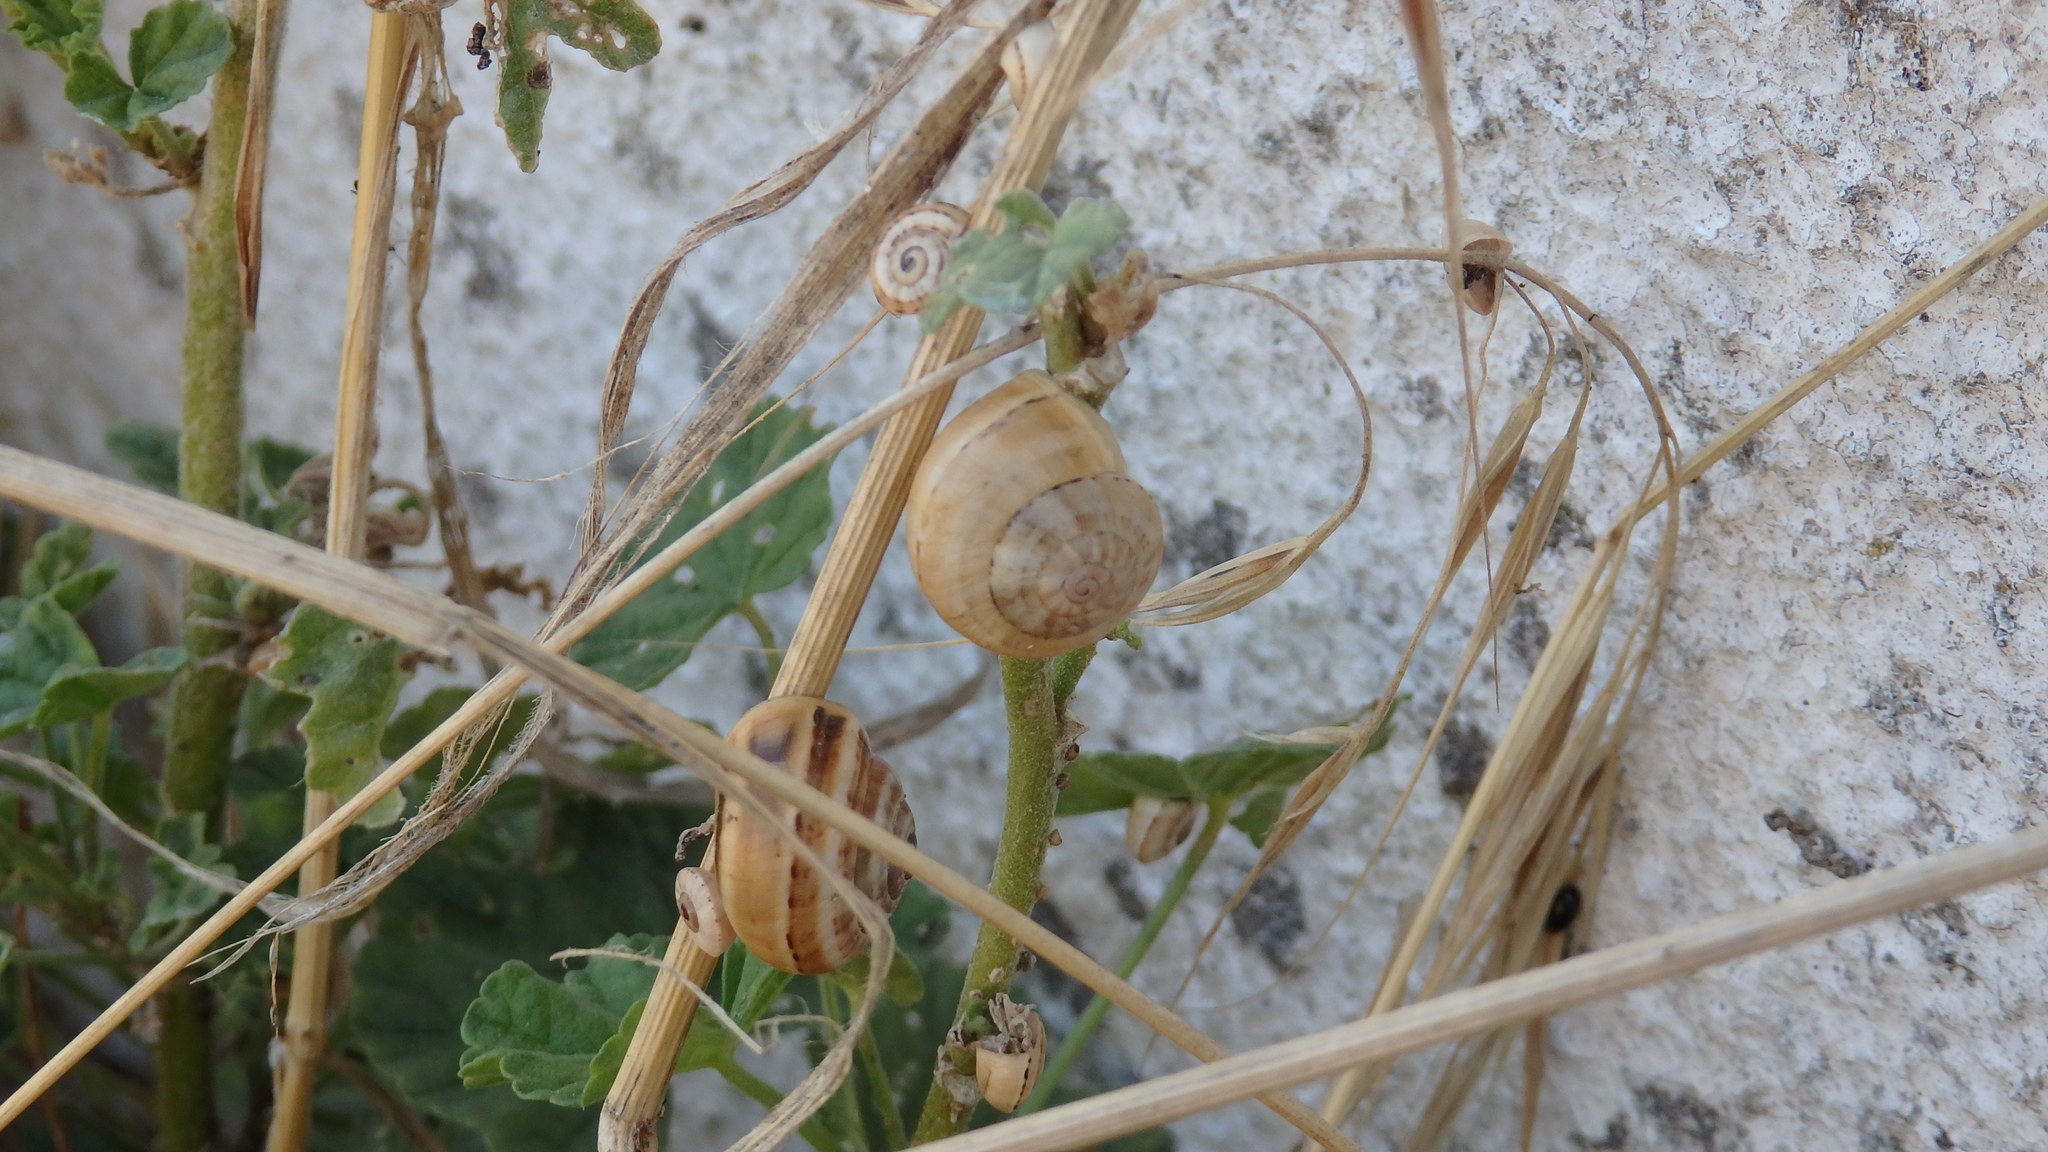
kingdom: Animalia
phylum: Mollusca
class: Gastropoda
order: Stylommatophora
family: Helicidae
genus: Theba
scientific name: Theba pisana
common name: White snail
